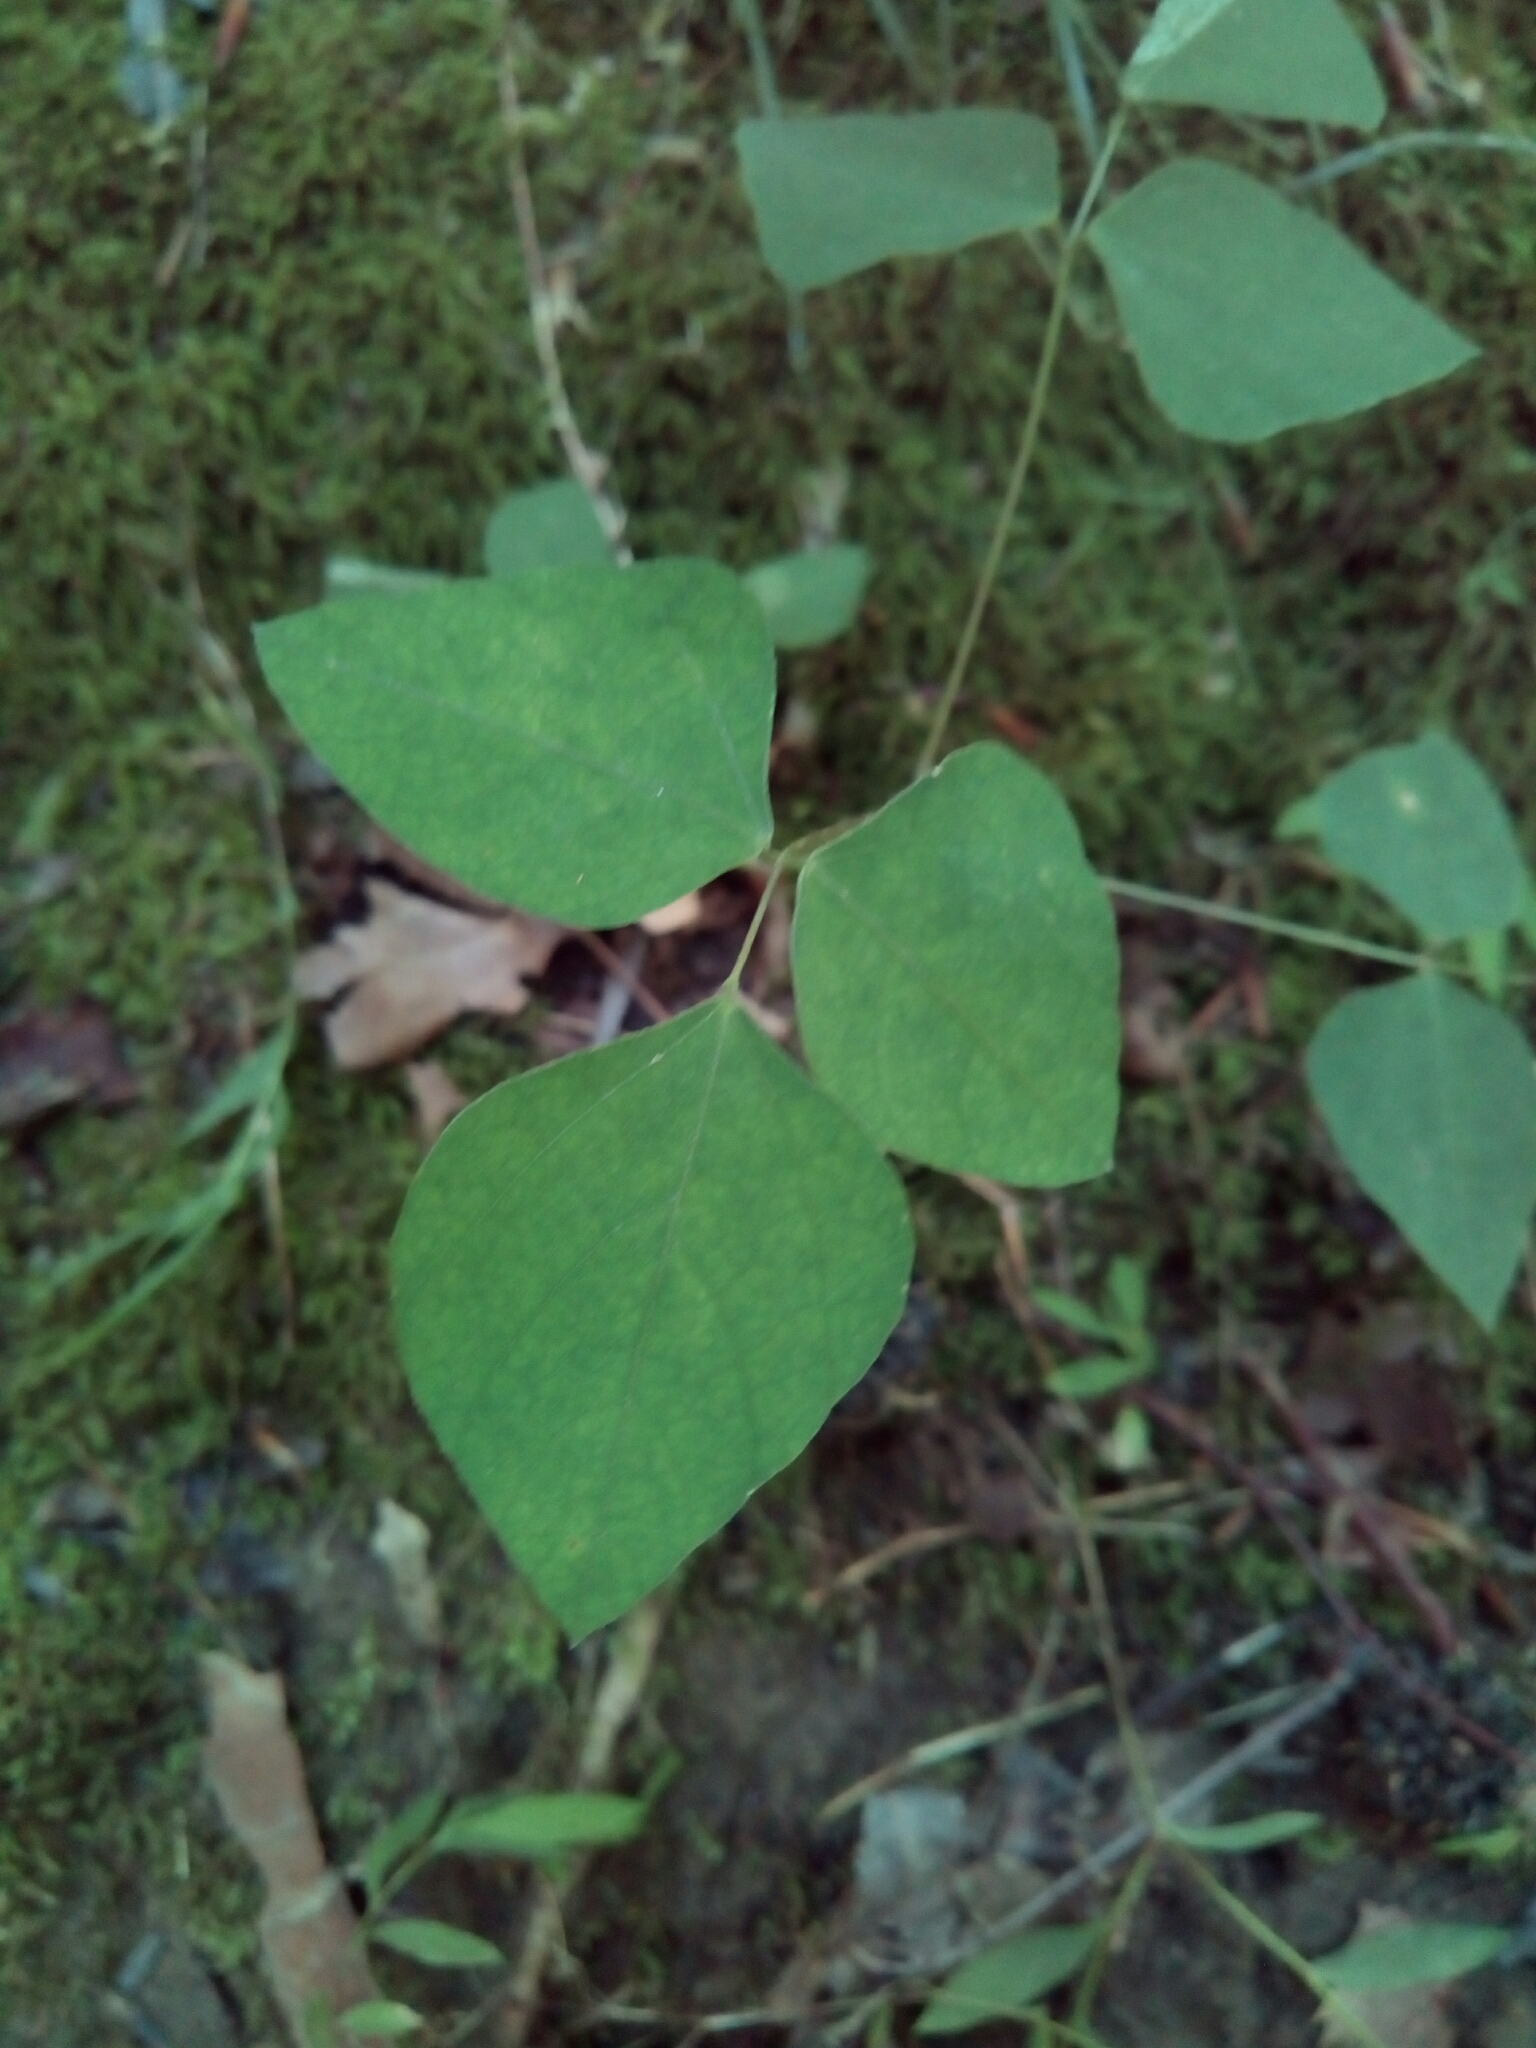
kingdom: Plantae
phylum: Tracheophyta
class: Magnoliopsida
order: Fabales
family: Fabaceae
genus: Amphicarpaea
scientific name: Amphicarpaea bracteata
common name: American hog peanut
